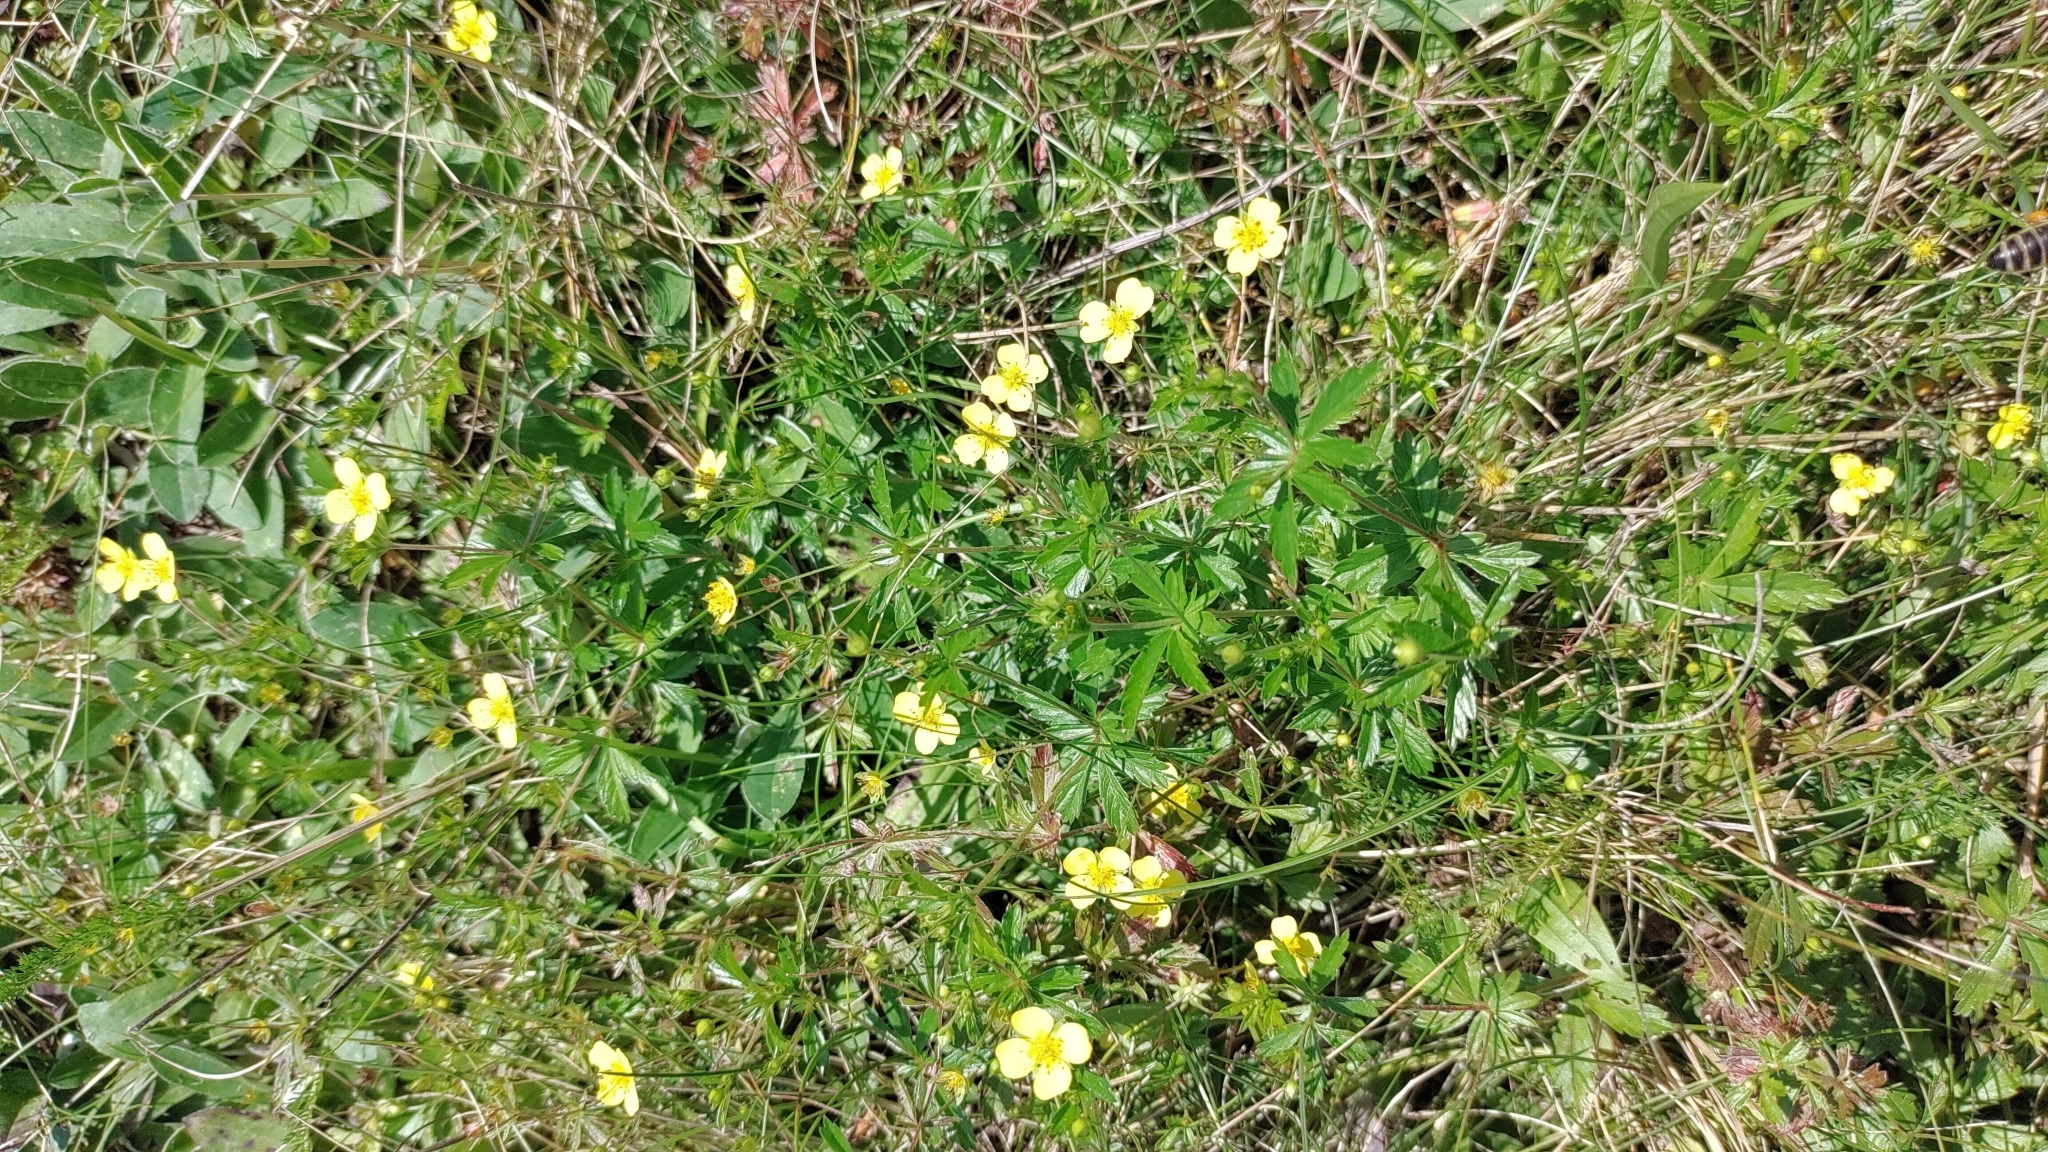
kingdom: Plantae
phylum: Tracheophyta
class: Magnoliopsida
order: Rosales
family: Rosaceae
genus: Potentilla
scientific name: Potentilla erecta
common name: Tormentil
